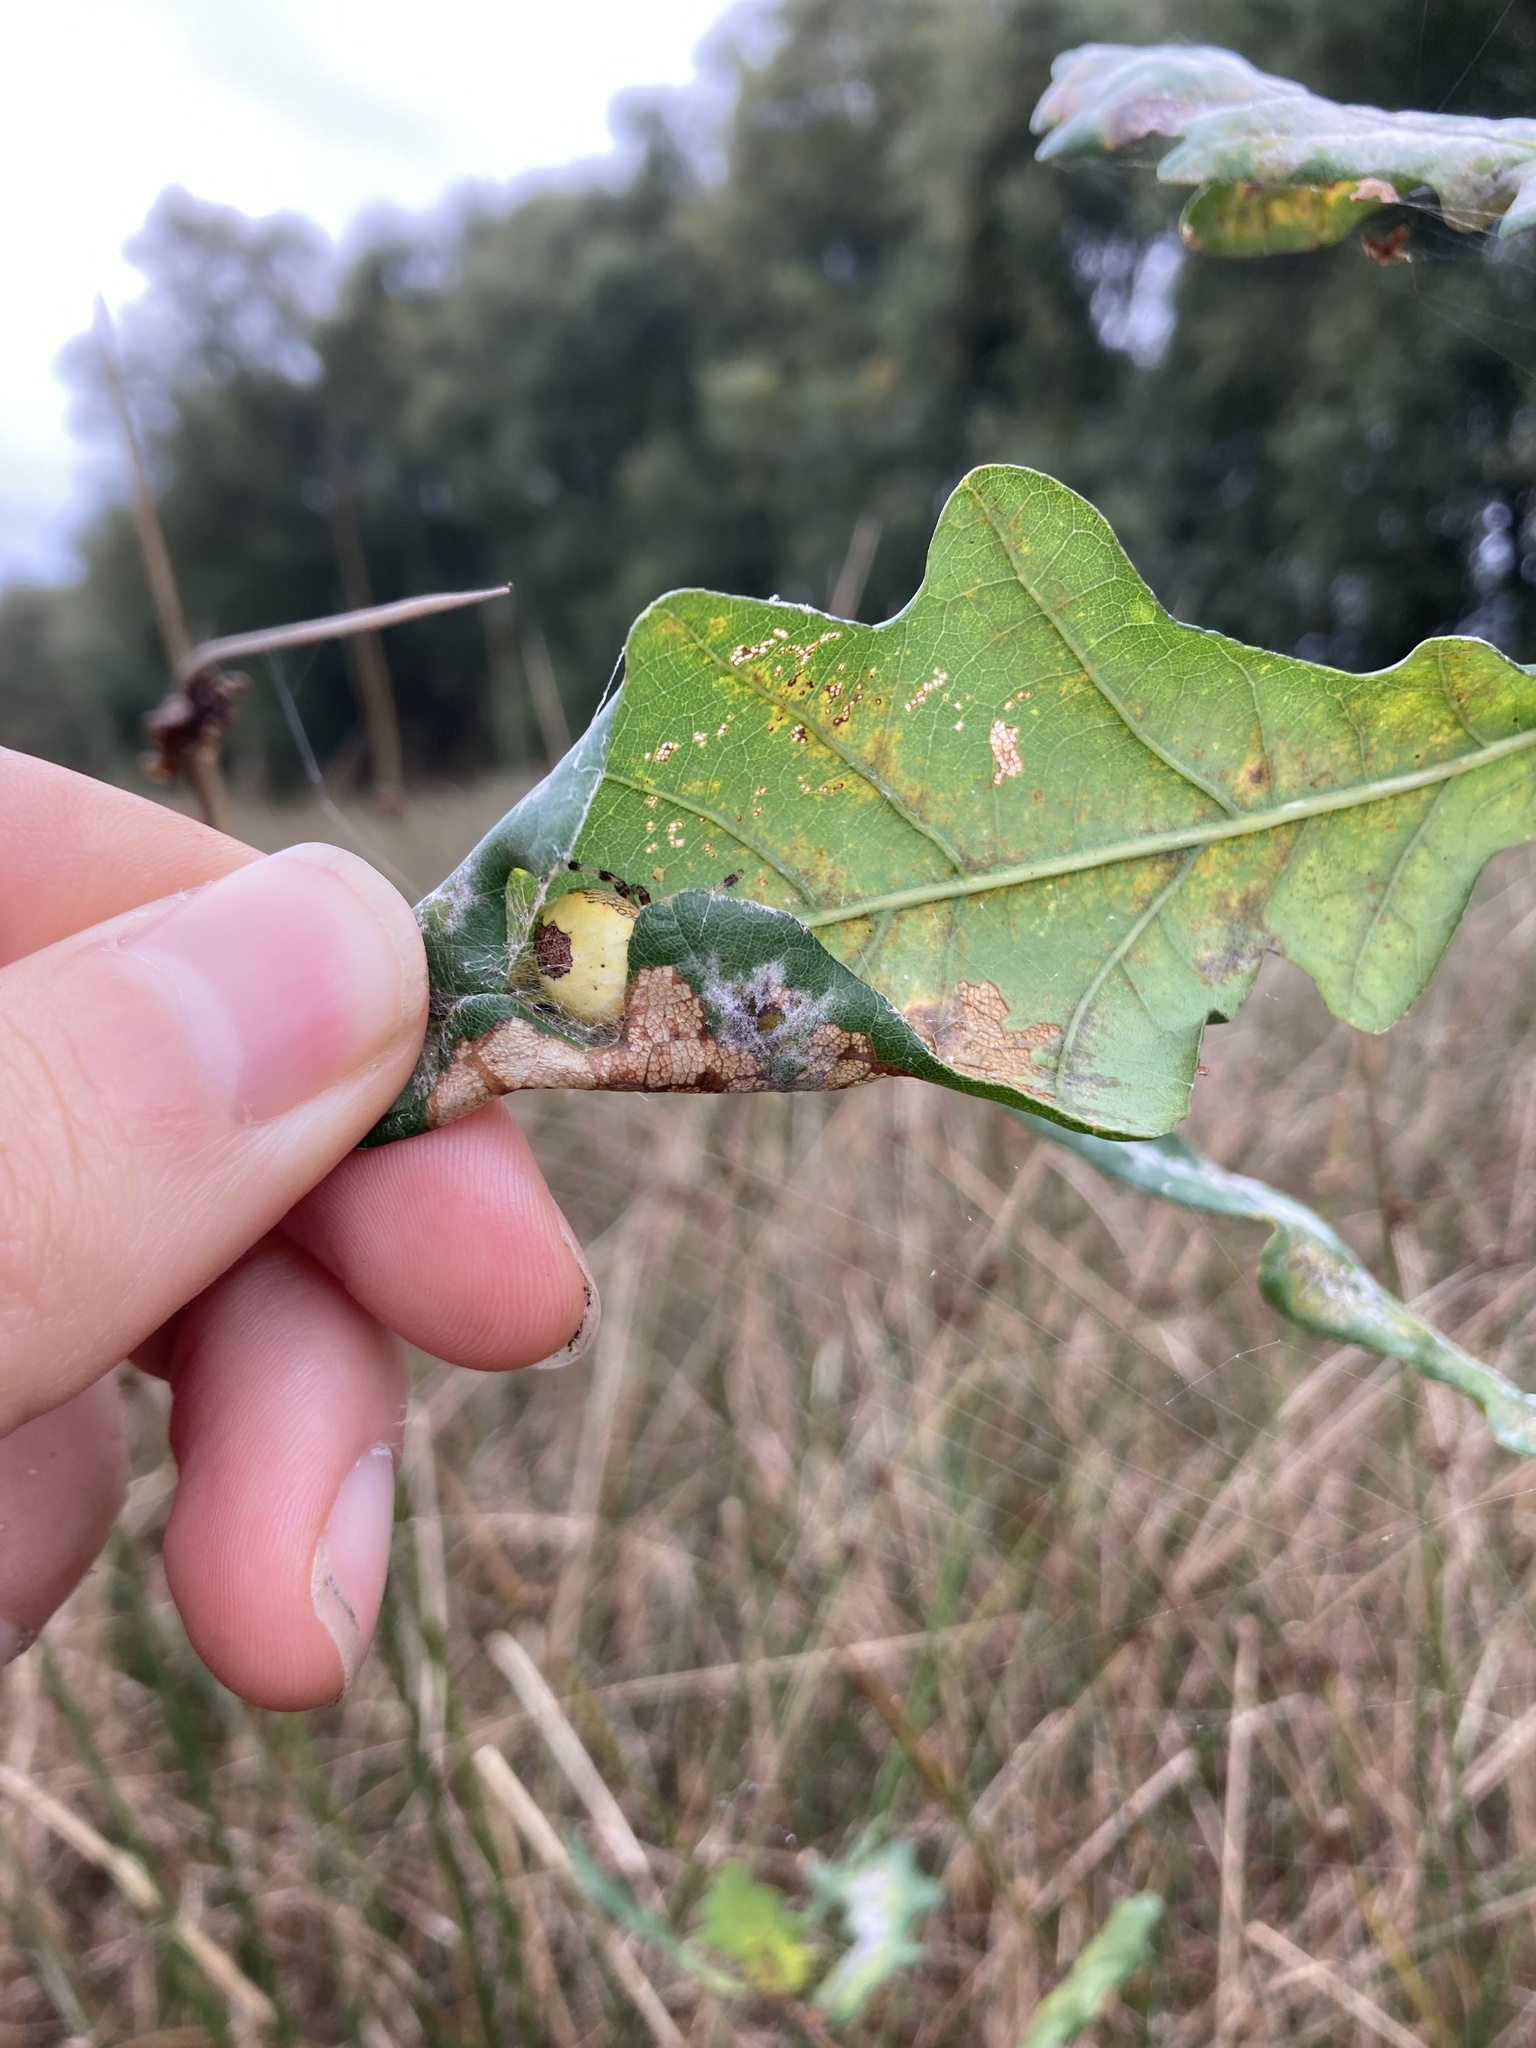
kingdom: Animalia
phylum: Arthropoda
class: Arachnida
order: Araneae
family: Araneidae
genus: Araneus
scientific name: Araneus marmoreus
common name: Marbled orbweaver
